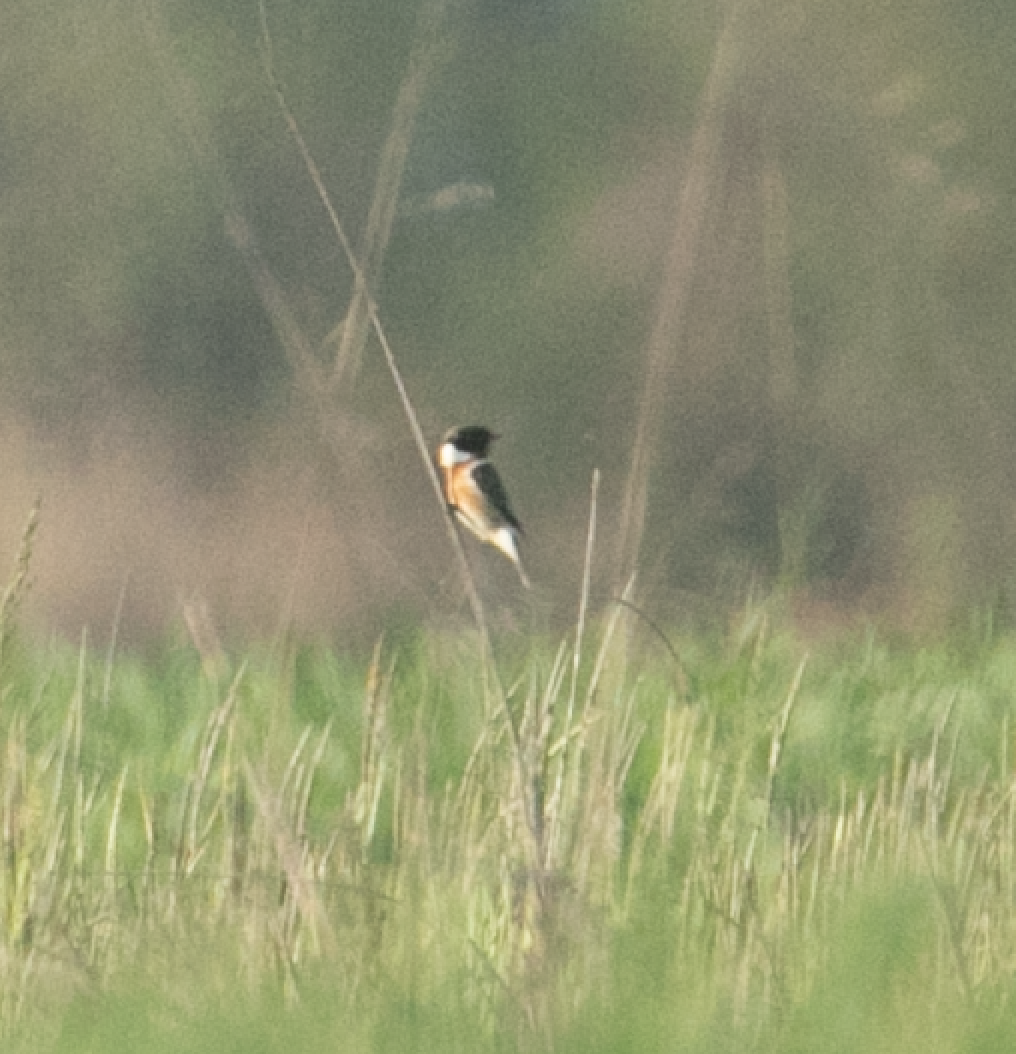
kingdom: Animalia
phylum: Chordata
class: Aves
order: Passeriformes
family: Muscicapidae
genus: Saxicola
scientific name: Saxicola rubicola
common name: European stonechat
